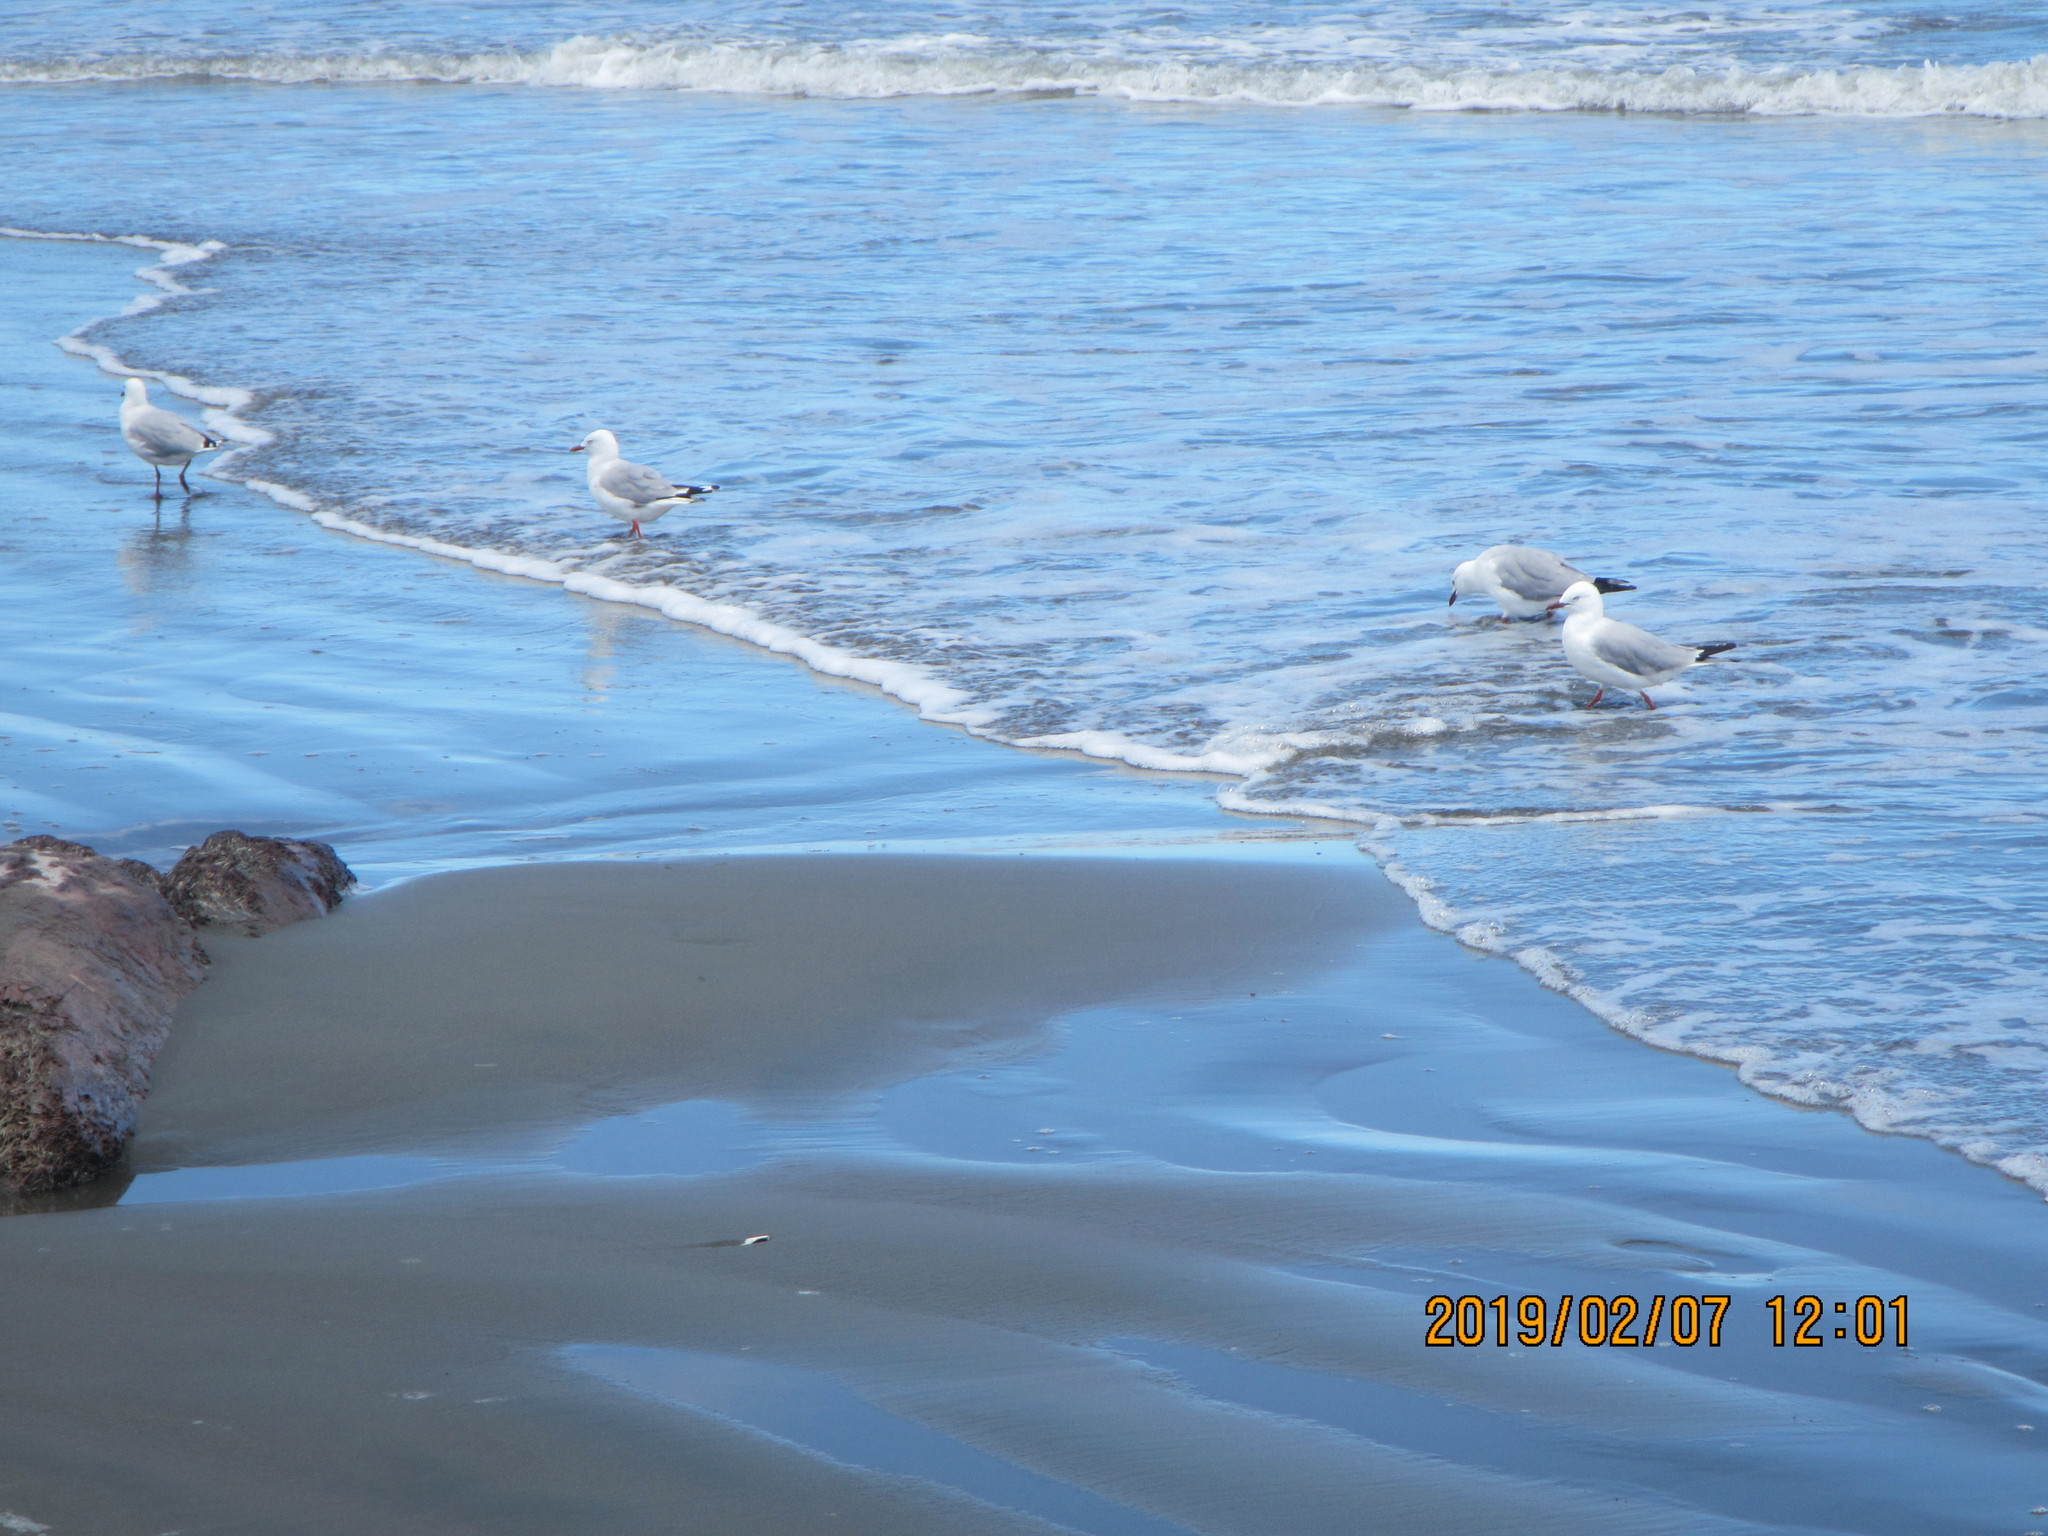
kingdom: Animalia
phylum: Chordata
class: Aves
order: Charadriiformes
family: Laridae
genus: Chroicocephalus
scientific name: Chroicocephalus novaehollandiae
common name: Silver gull
